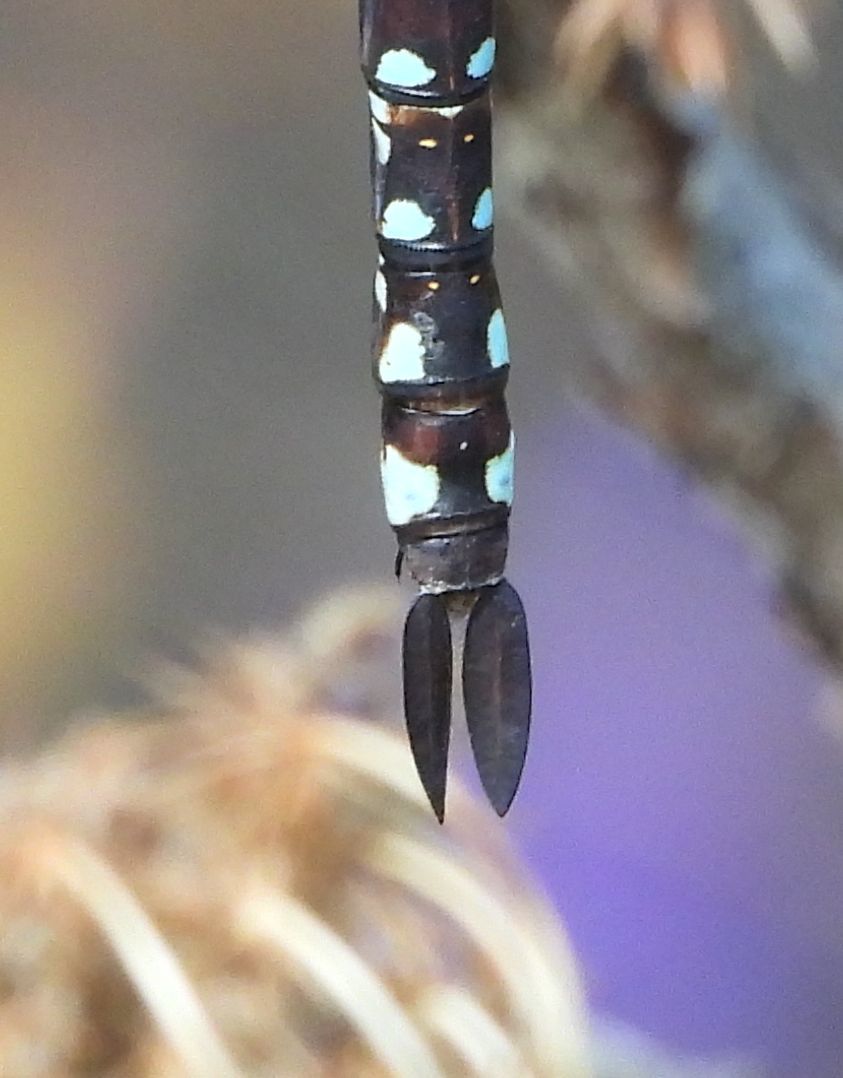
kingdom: Animalia
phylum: Arthropoda
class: Insecta
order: Odonata
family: Aeshnidae
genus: Aeshna
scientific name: Aeshna constricta
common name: Lance-tipped darner
